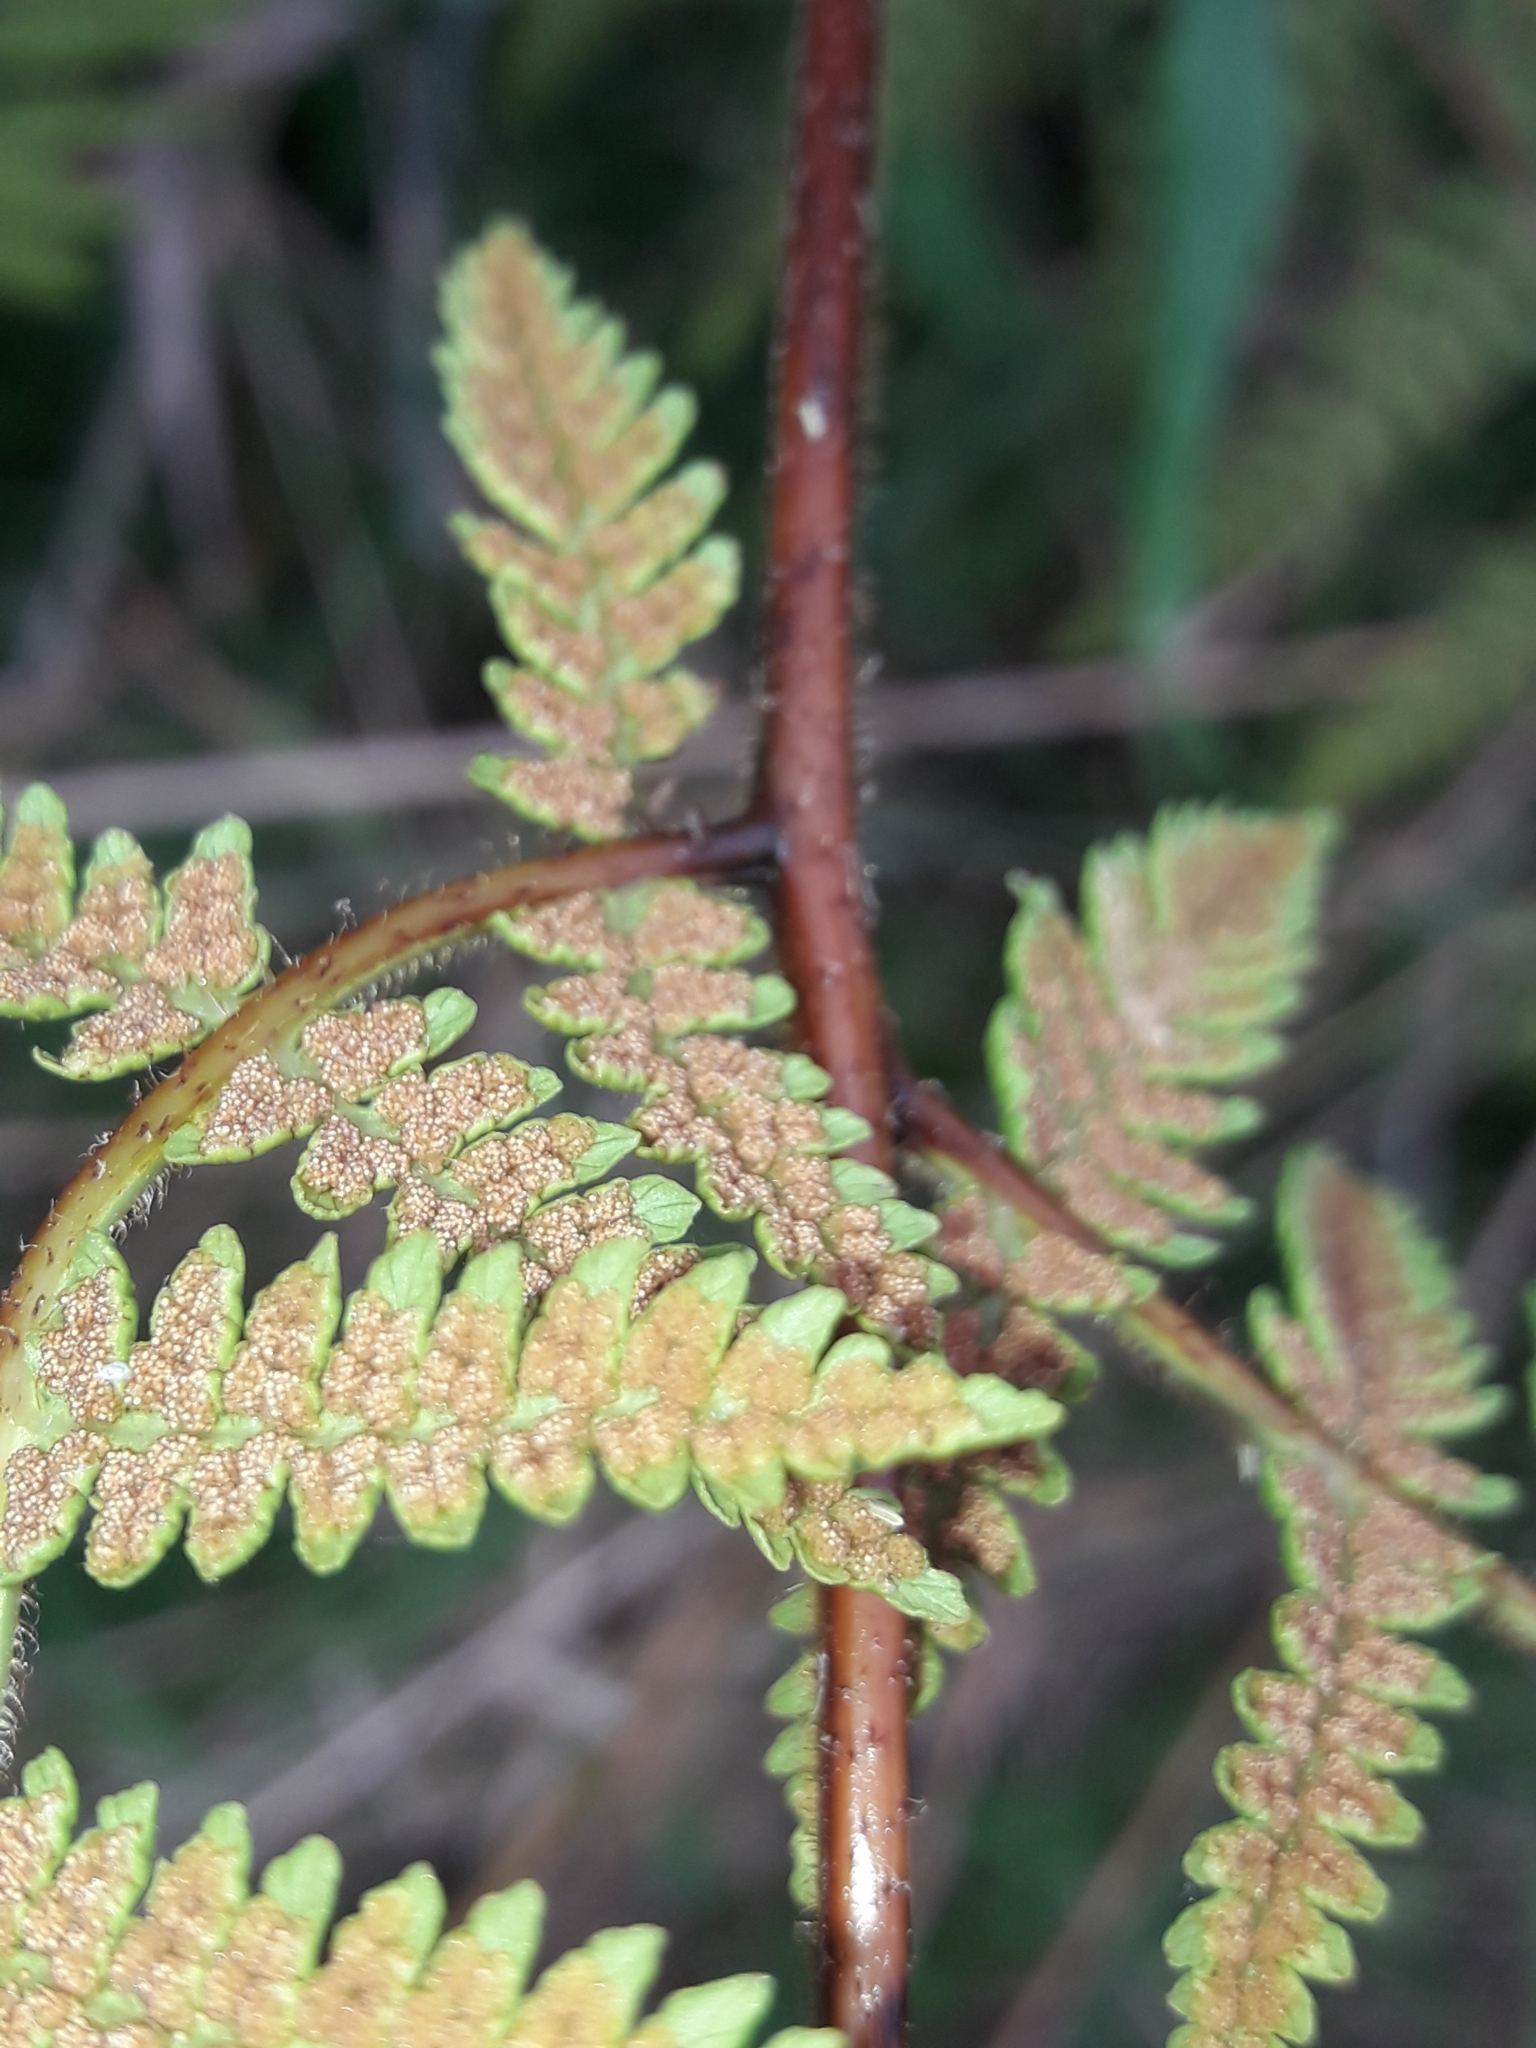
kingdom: Plantae
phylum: Tracheophyta
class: Polypodiopsida
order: Polypodiales
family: Dennstaedtiaceae
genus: Hypolepis
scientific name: Hypolepis ambigua
